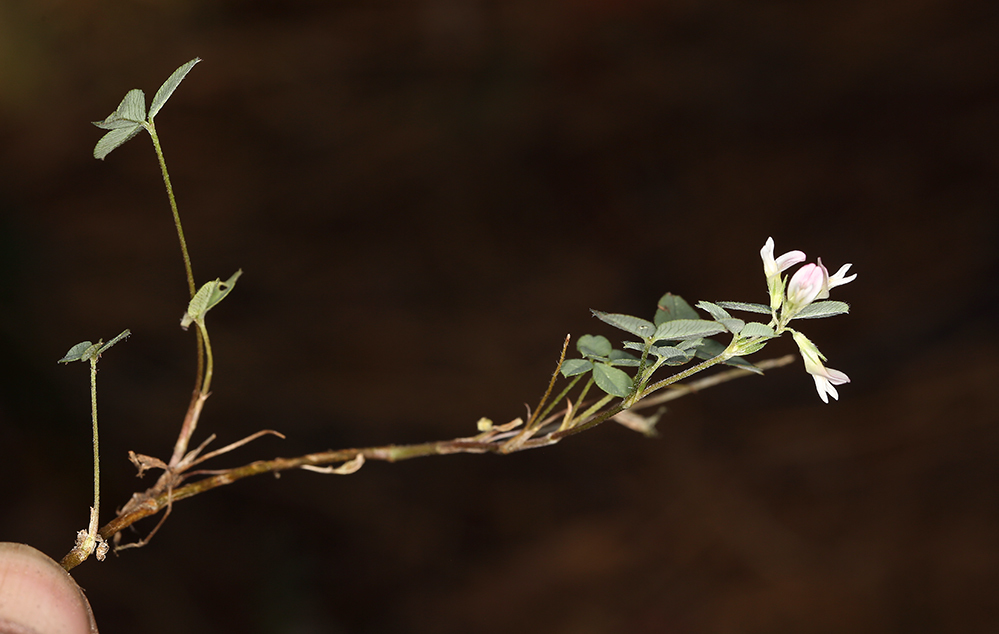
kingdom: Plantae
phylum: Tracheophyta
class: Magnoliopsida
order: Fabales
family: Fabaceae
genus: Trifolium
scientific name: Trifolium breweri
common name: Forest clover
